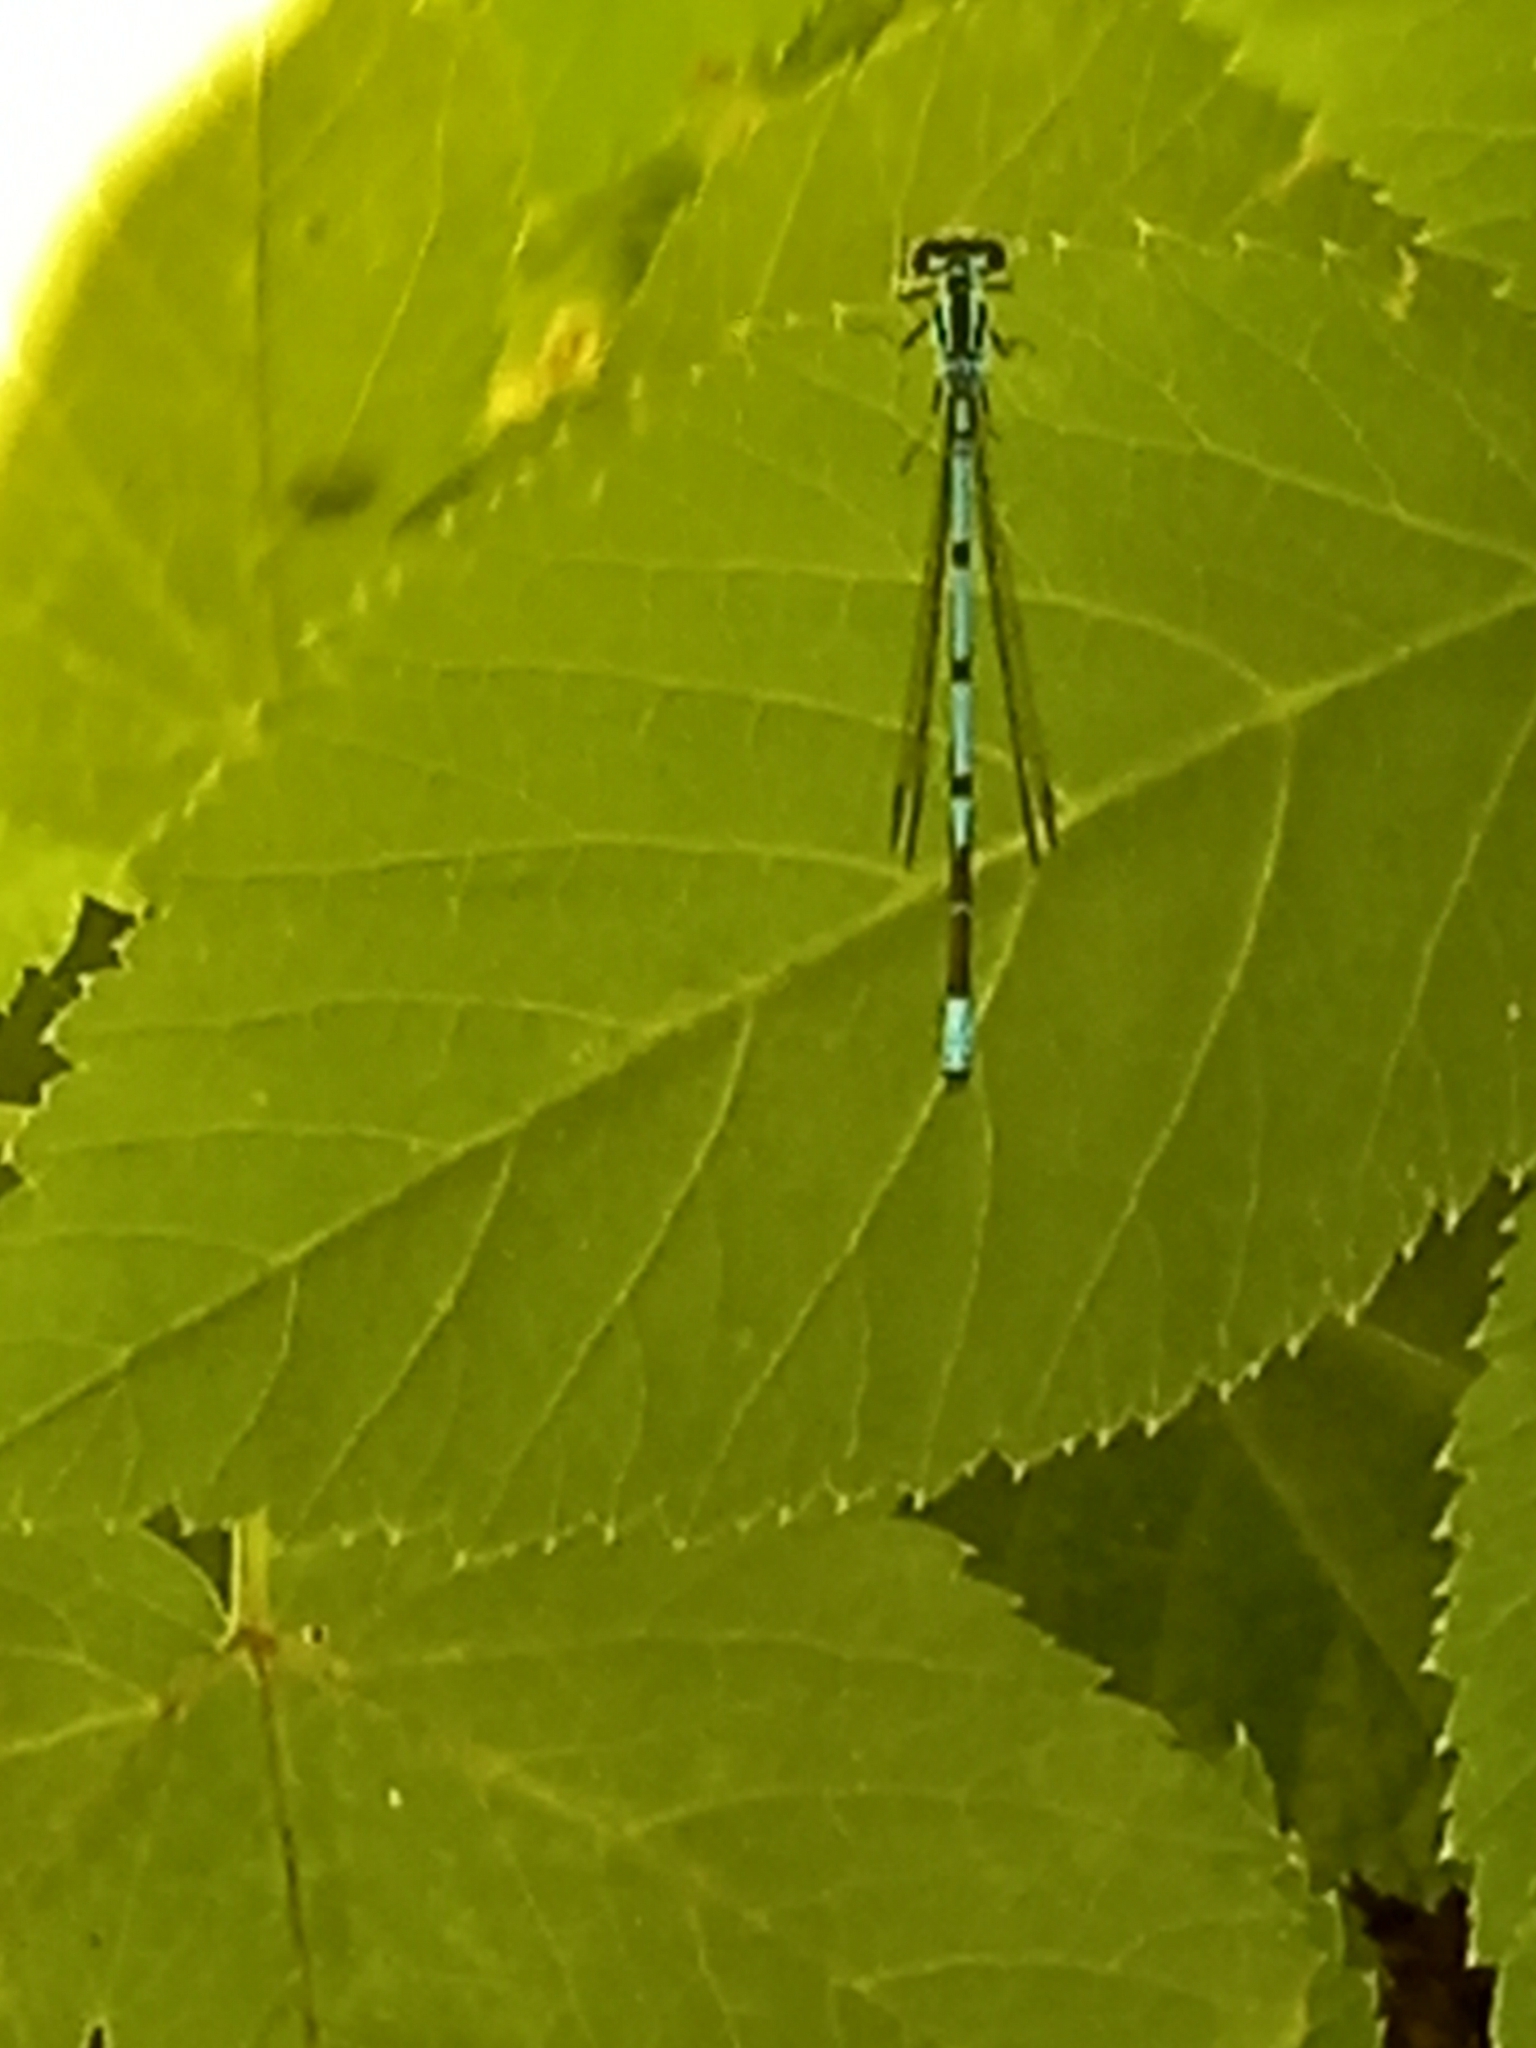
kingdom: Animalia
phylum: Arthropoda
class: Insecta
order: Odonata
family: Coenagrionidae
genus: Coenagrion
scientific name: Coenagrion puella
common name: Azure damselfly
